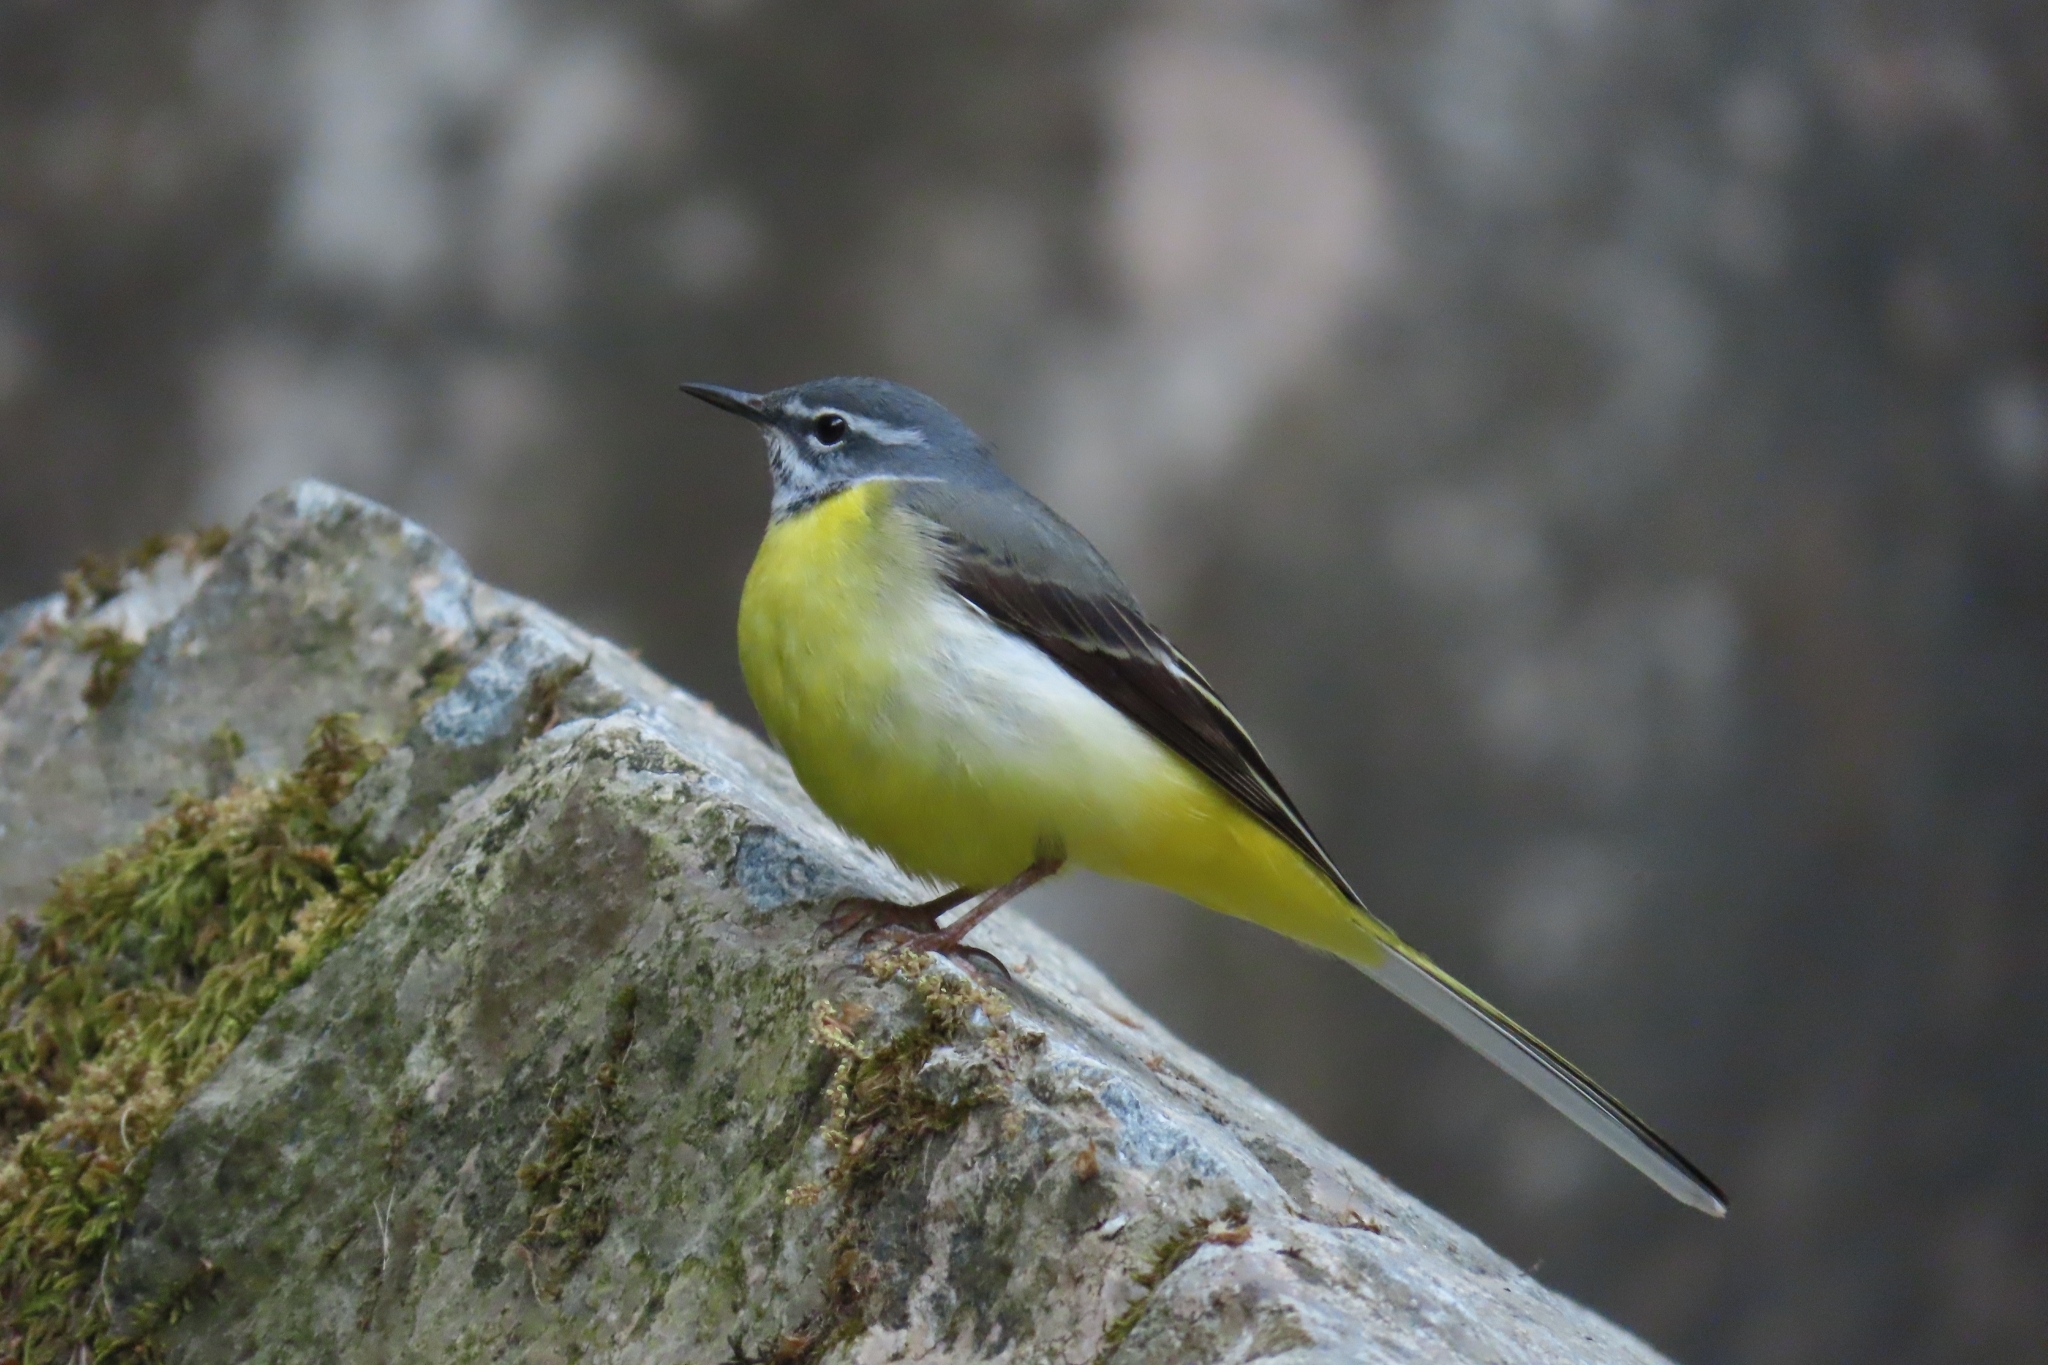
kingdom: Animalia
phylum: Chordata
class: Aves
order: Passeriformes
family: Motacillidae
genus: Motacilla
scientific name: Motacilla cinerea
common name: Grey wagtail
